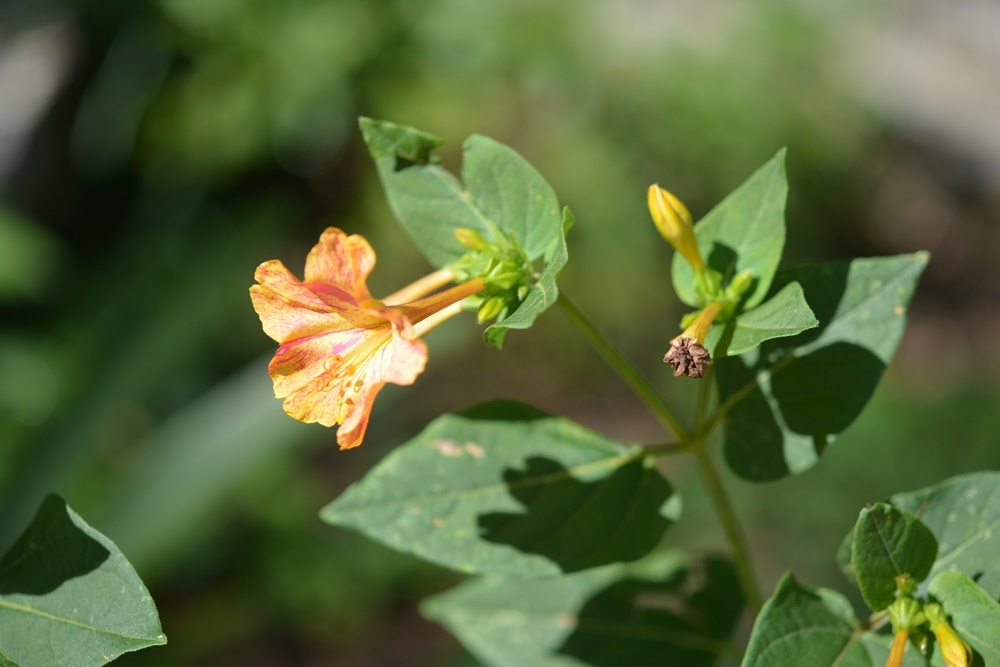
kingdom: Plantae
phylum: Tracheophyta
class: Magnoliopsida
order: Caryophyllales
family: Nyctaginaceae
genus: Mirabilis
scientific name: Mirabilis jalapa
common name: Marvel-of-peru
